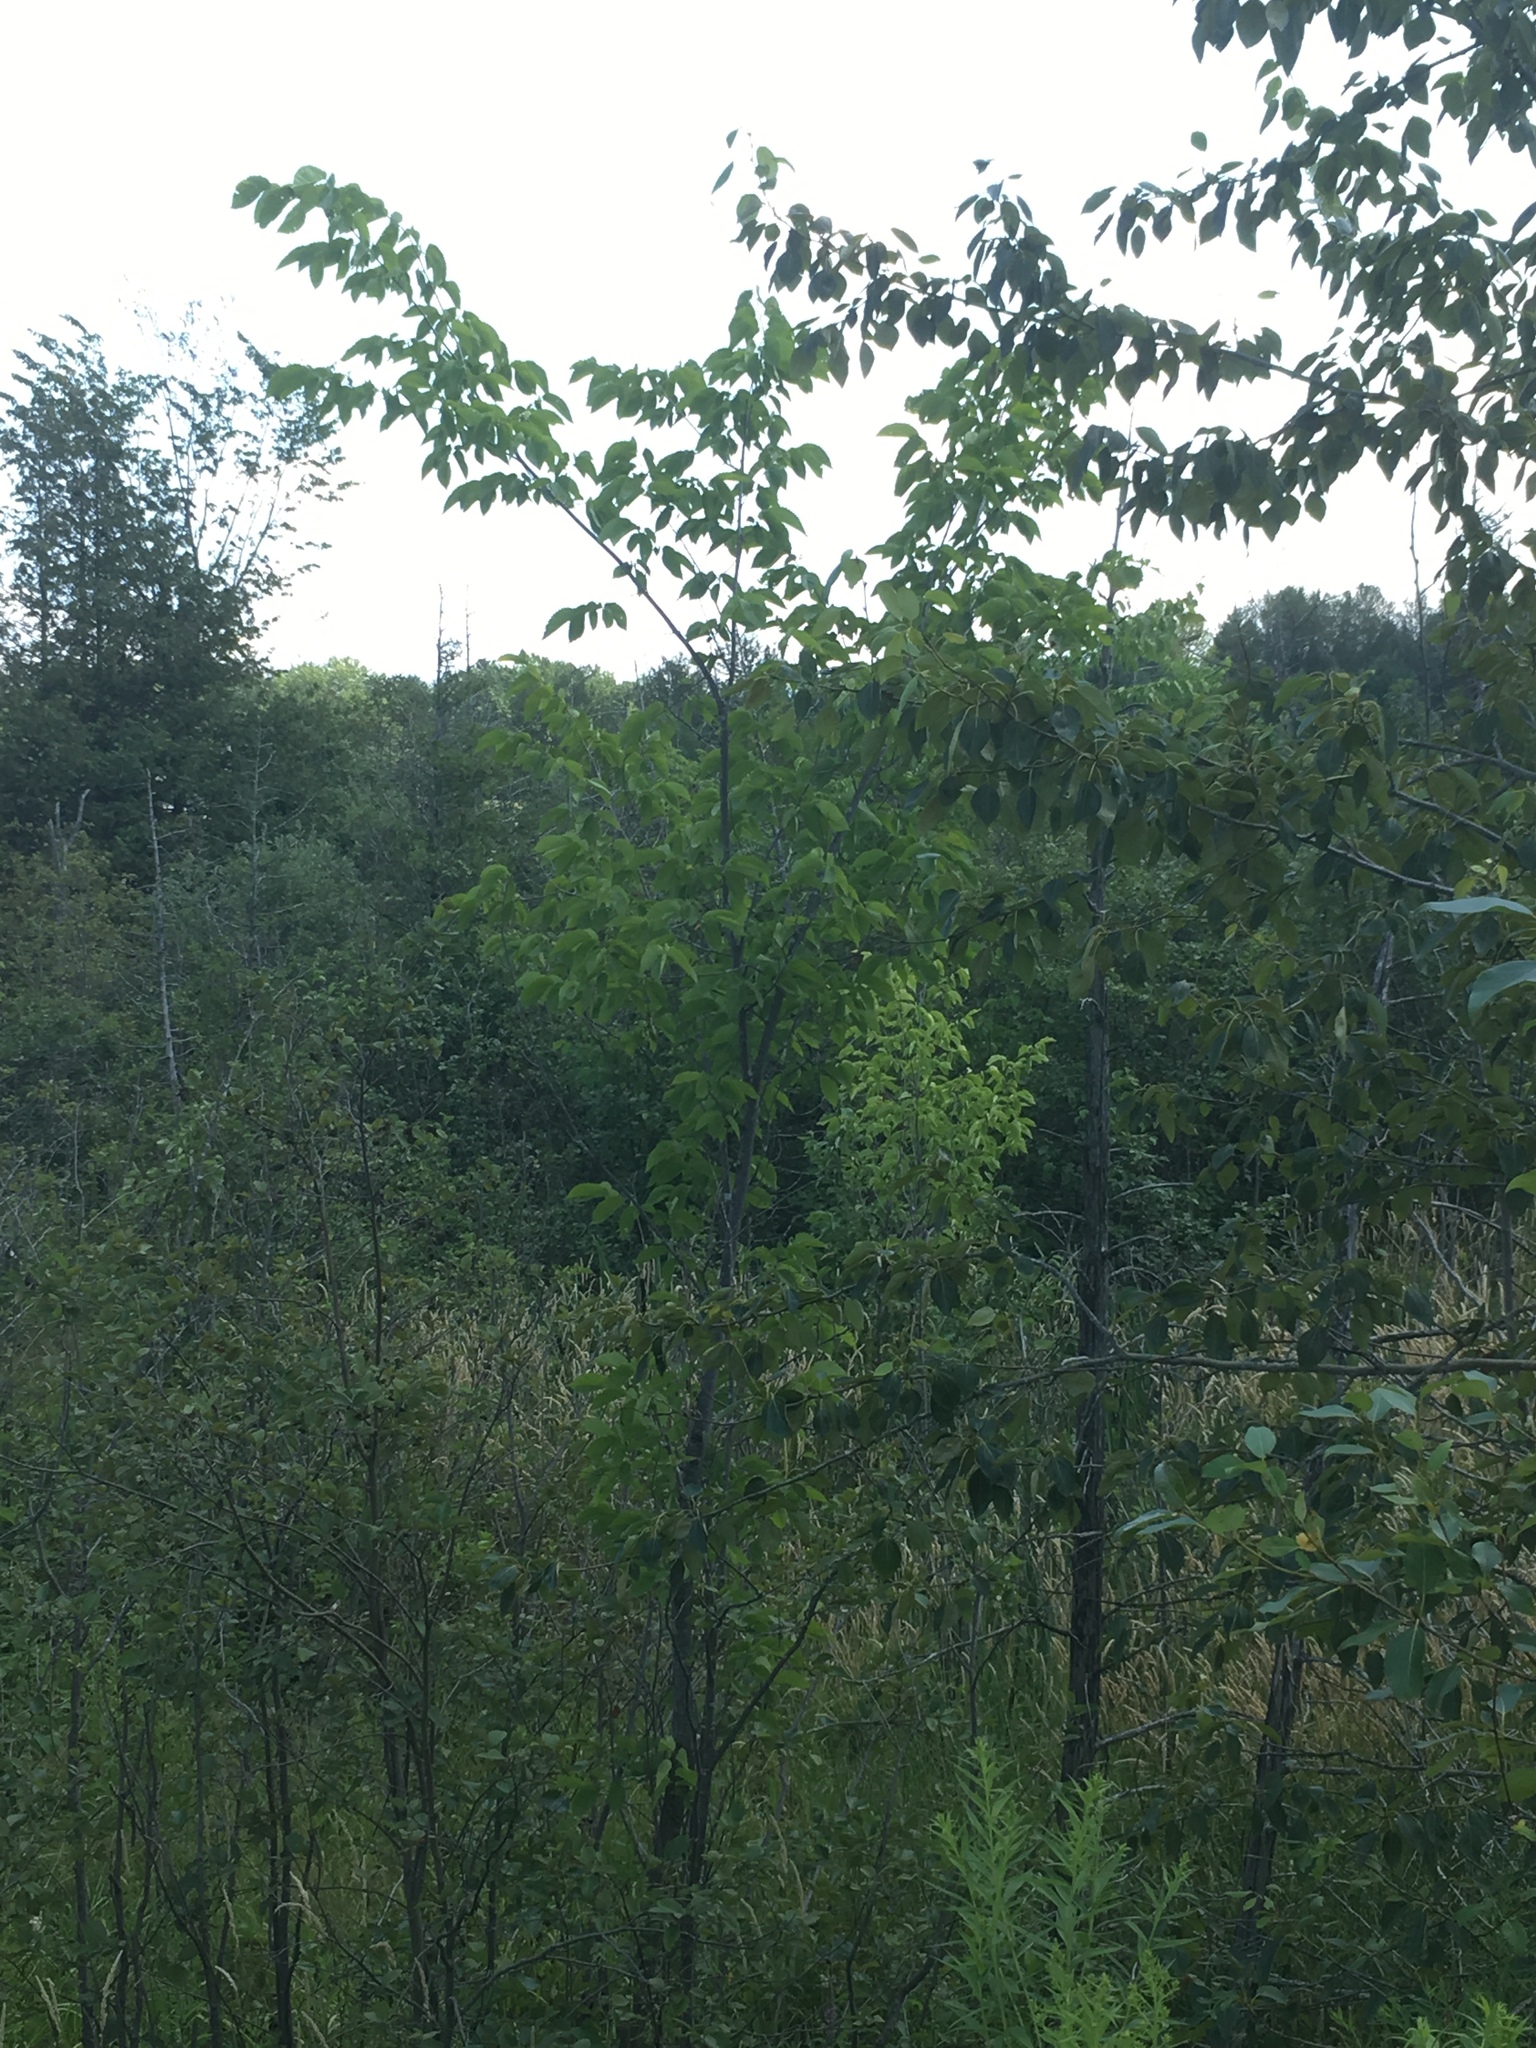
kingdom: Plantae
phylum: Tracheophyta
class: Magnoliopsida
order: Rosales
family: Ulmaceae
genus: Ulmus
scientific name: Ulmus americana
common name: American elm
